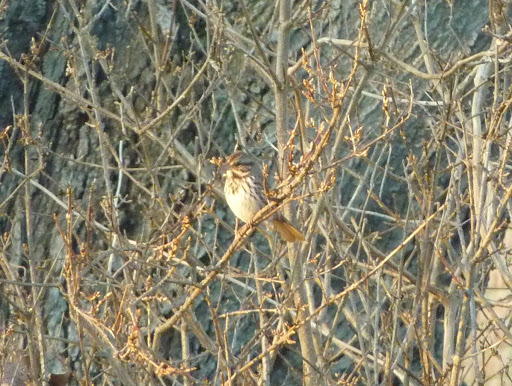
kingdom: Animalia
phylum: Chordata
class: Aves
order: Passeriformes
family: Passerellidae
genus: Melospiza
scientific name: Melospiza melodia
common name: Song sparrow
